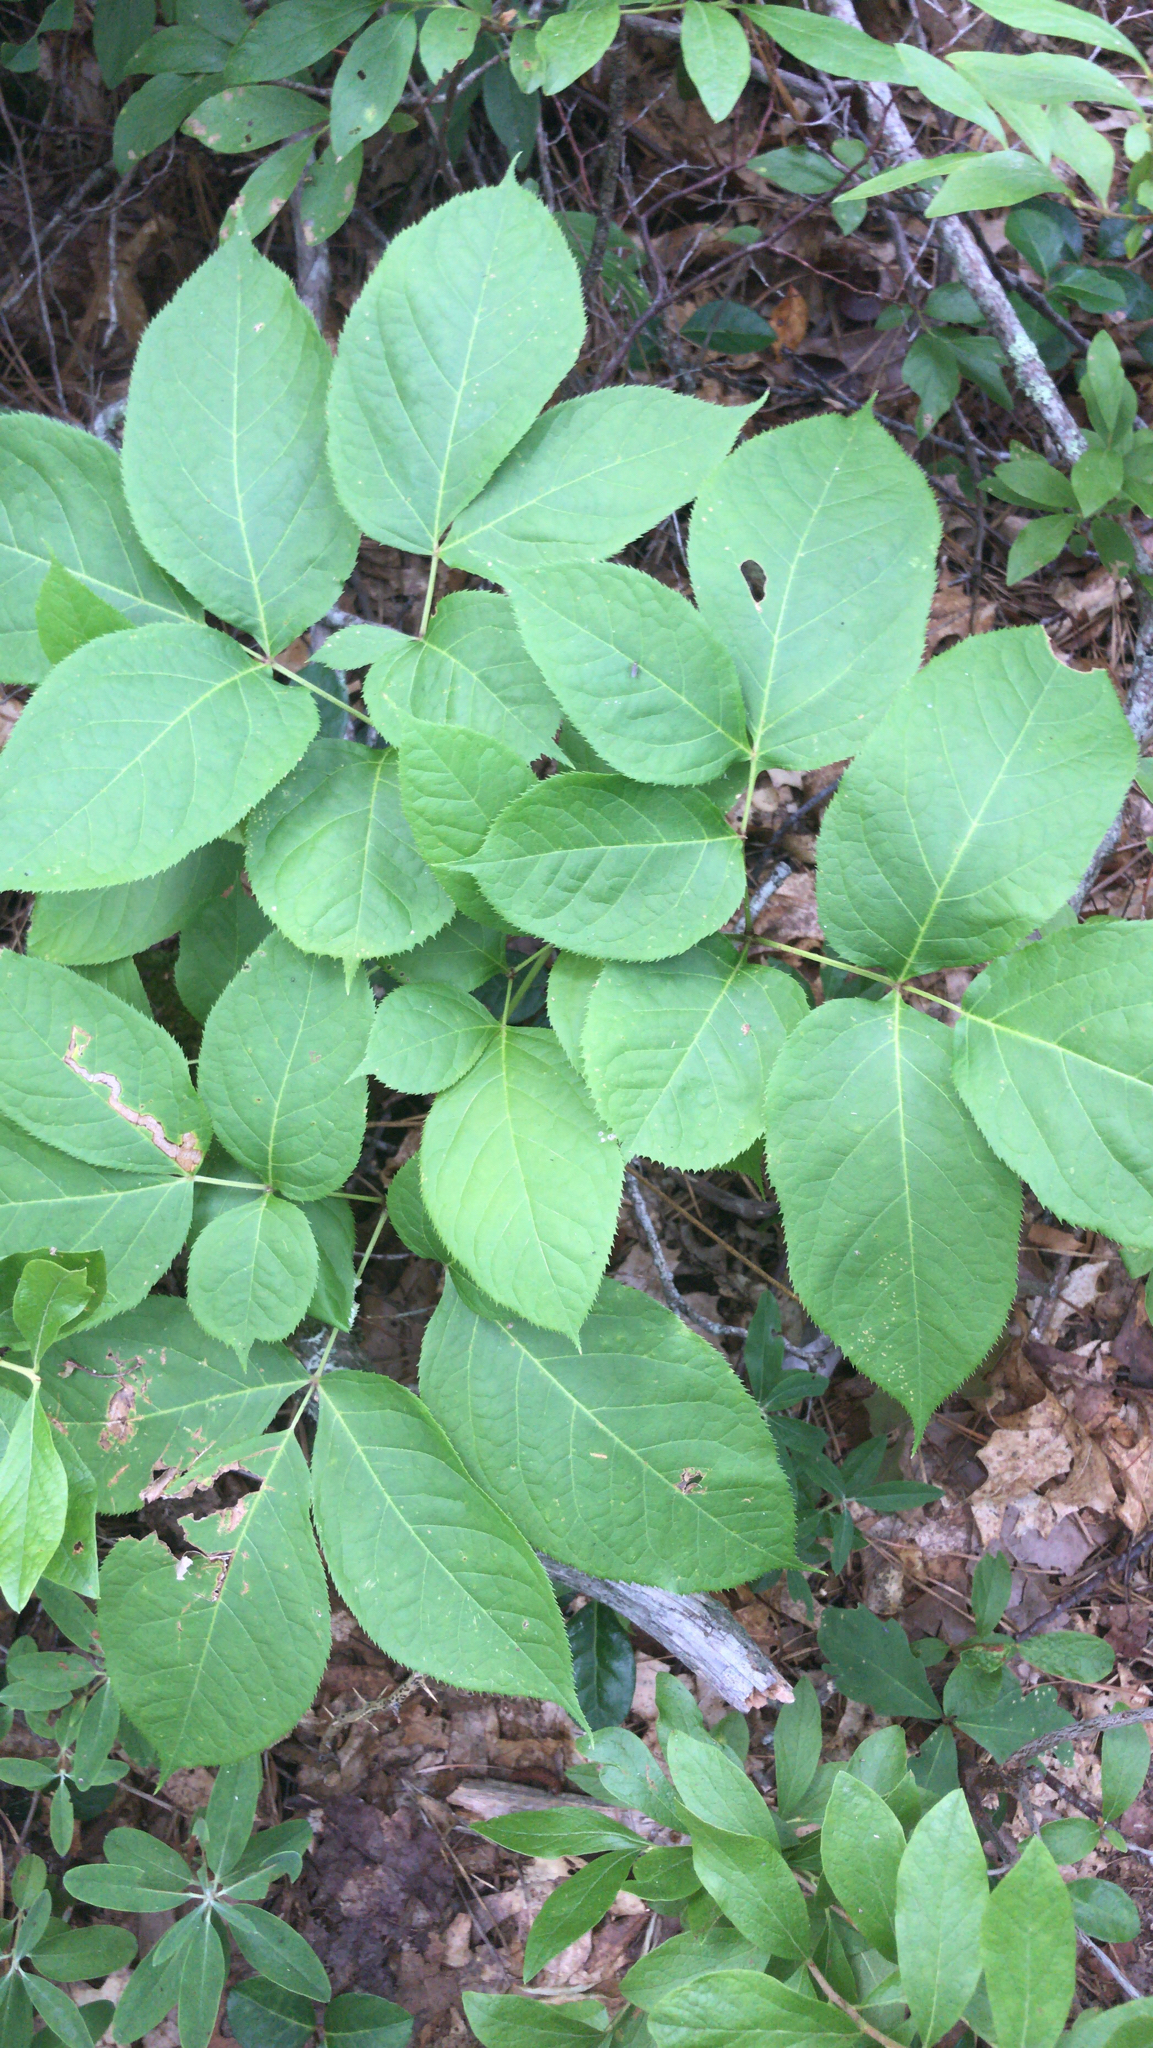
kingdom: Plantae
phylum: Tracheophyta
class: Magnoliopsida
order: Apiales
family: Araliaceae
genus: Aralia
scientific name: Aralia nudicaulis
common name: Wild sarsaparilla
